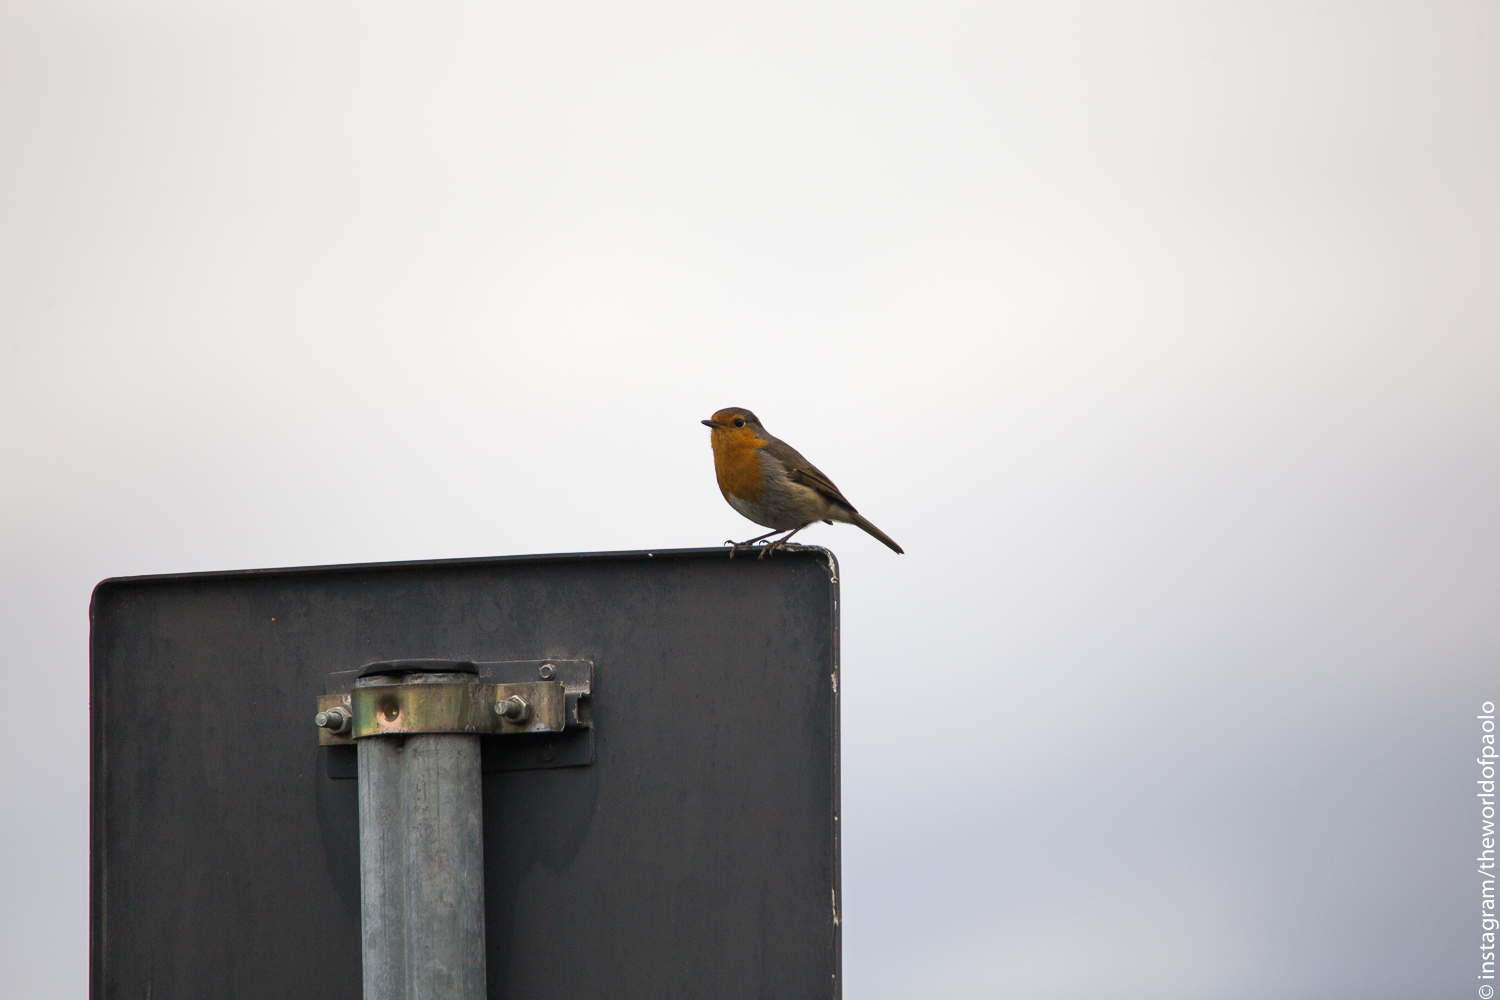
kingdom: Animalia
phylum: Chordata
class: Aves
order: Passeriformes
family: Muscicapidae
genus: Erithacus
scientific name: Erithacus rubecula
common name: European robin
